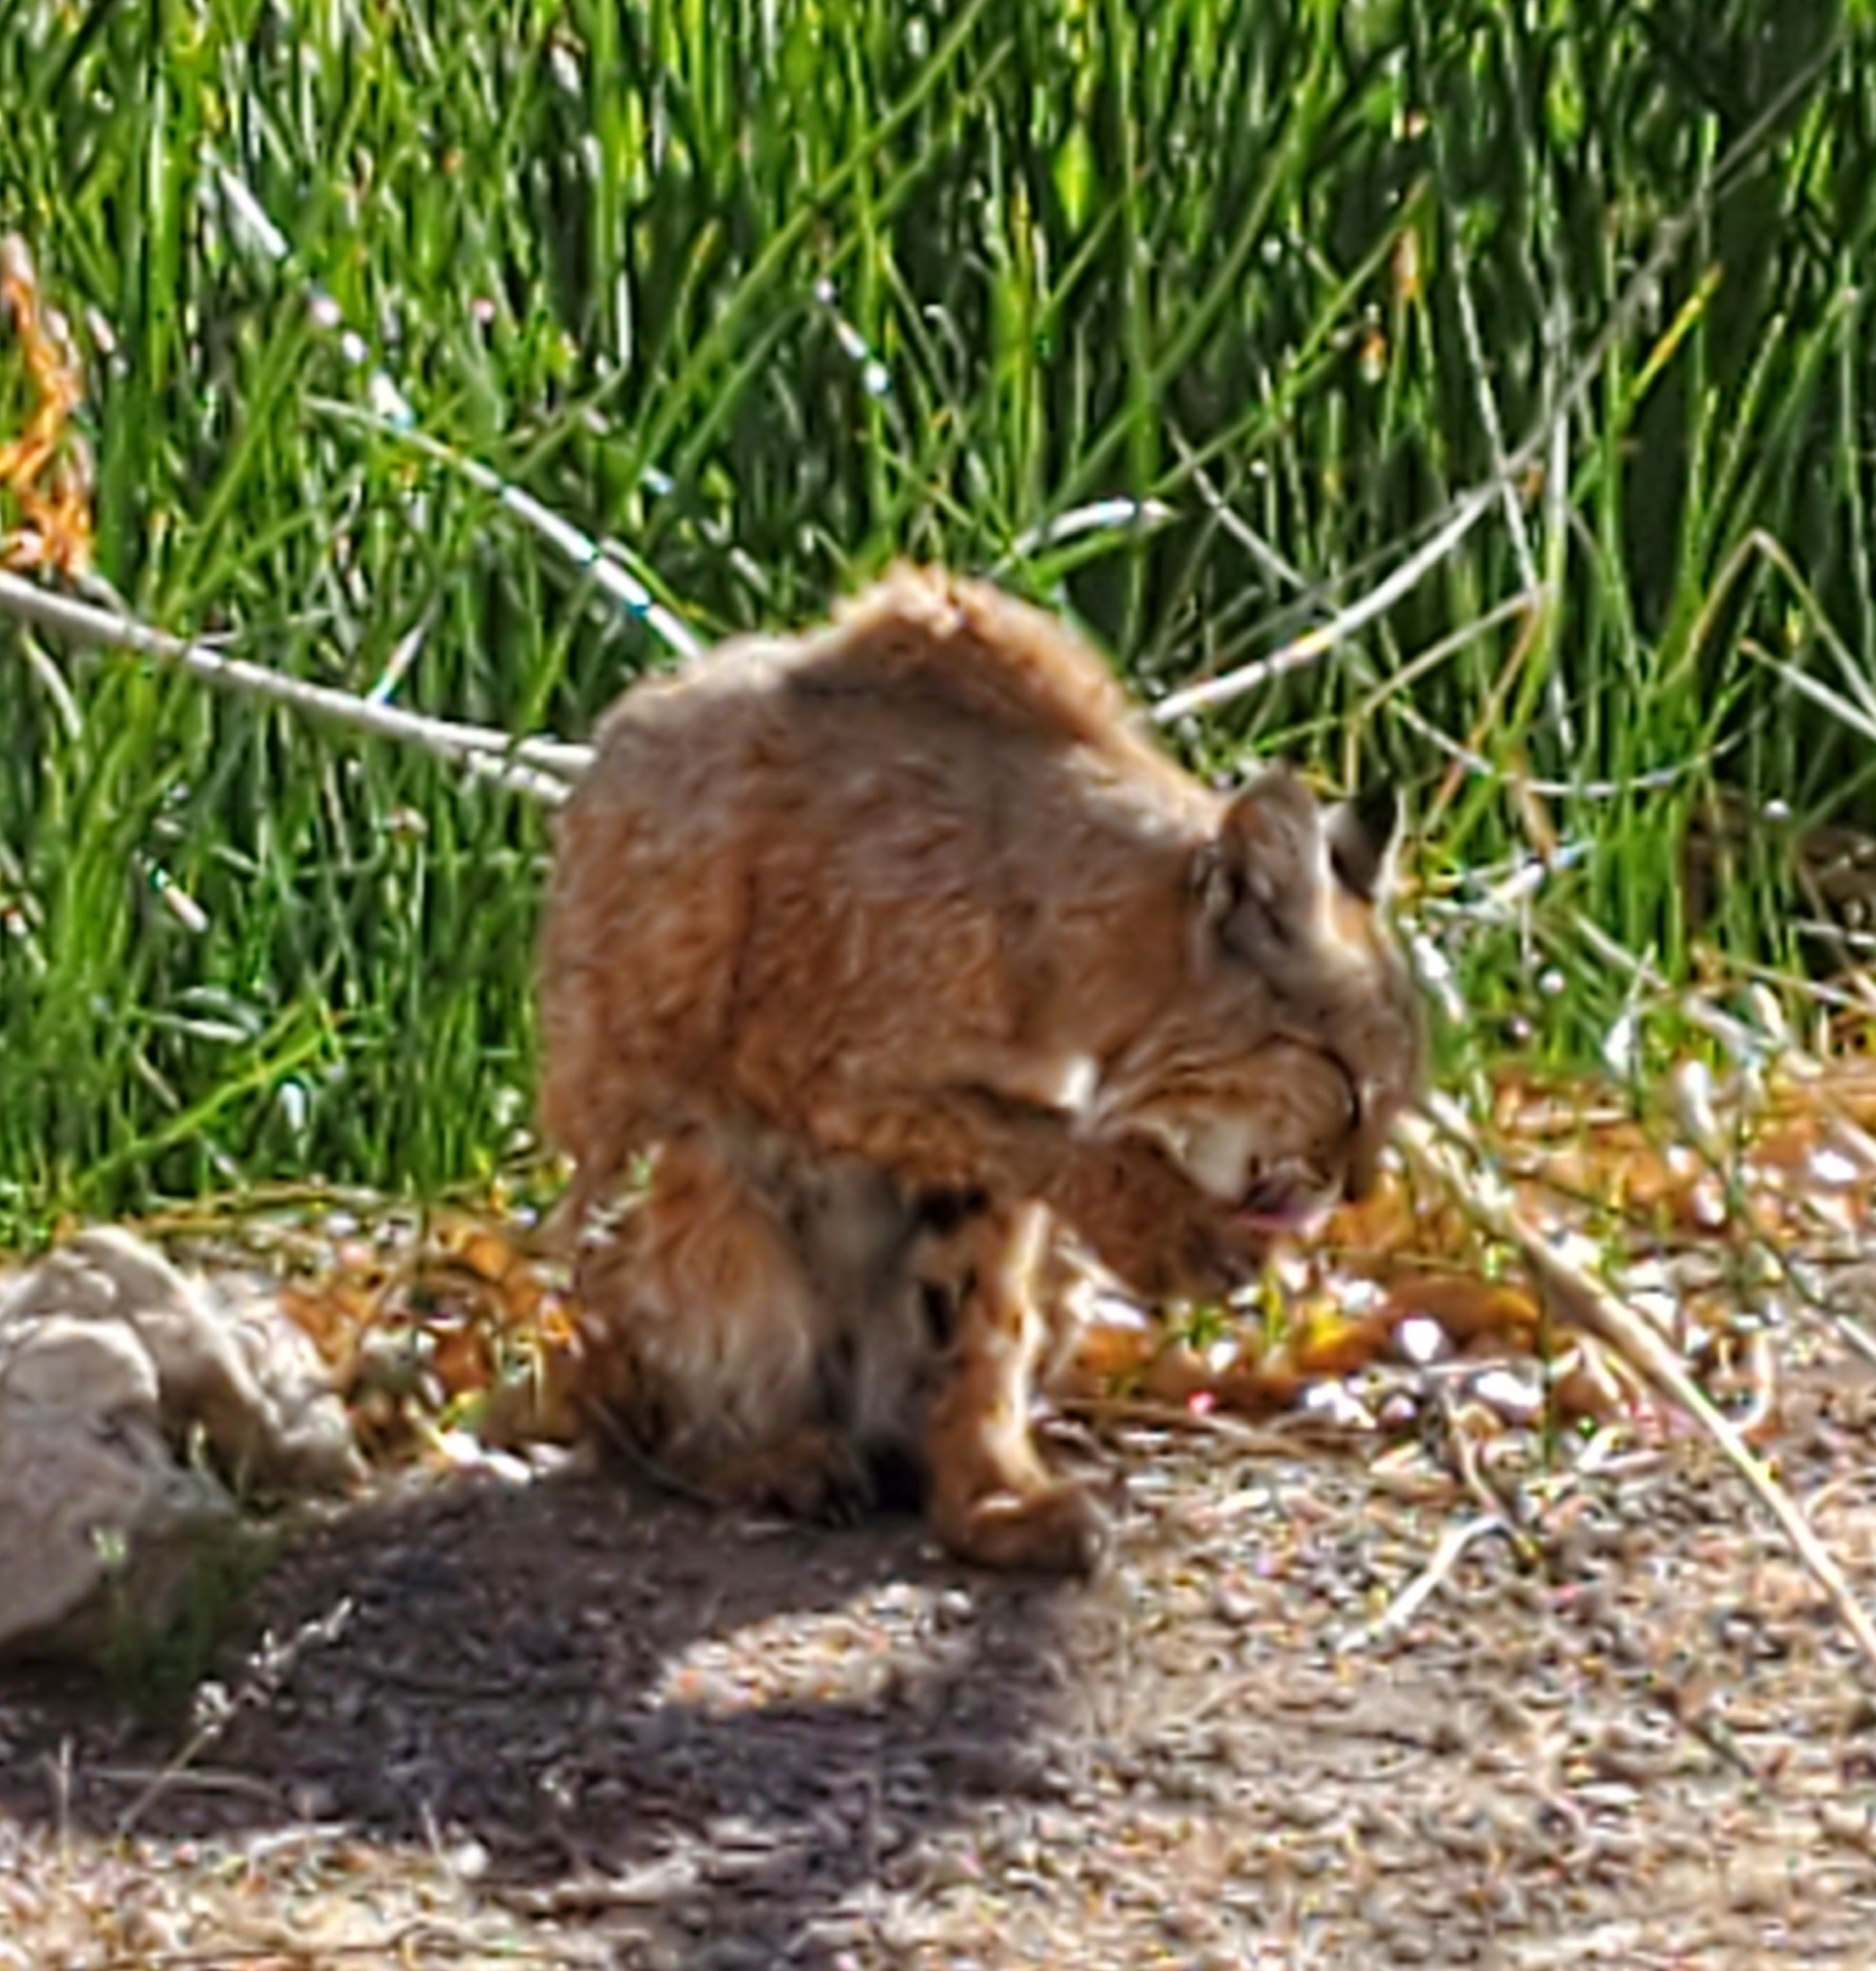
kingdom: Animalia
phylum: Chordata
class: Mammalia
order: Carnivora
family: Felidae
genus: Lynx
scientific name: Lynx rufus
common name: Bobcat
